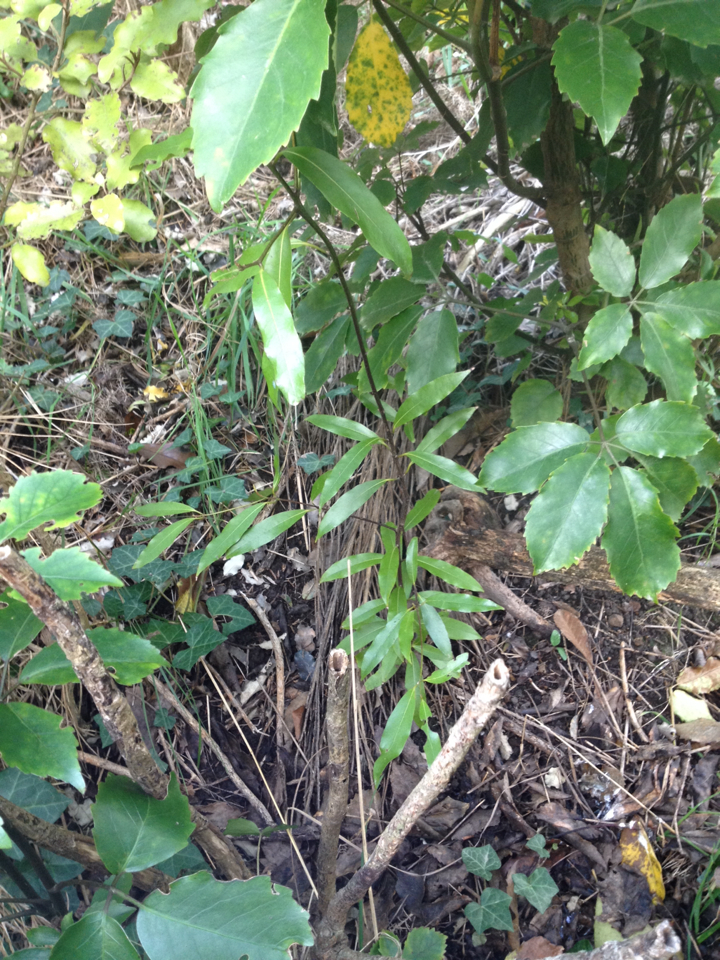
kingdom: Plantae
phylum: Tracheophyta
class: Magnoliopsida
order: Laurales
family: Lauraceae
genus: Beilschmiedia
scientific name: Beilschmiedia tawa
